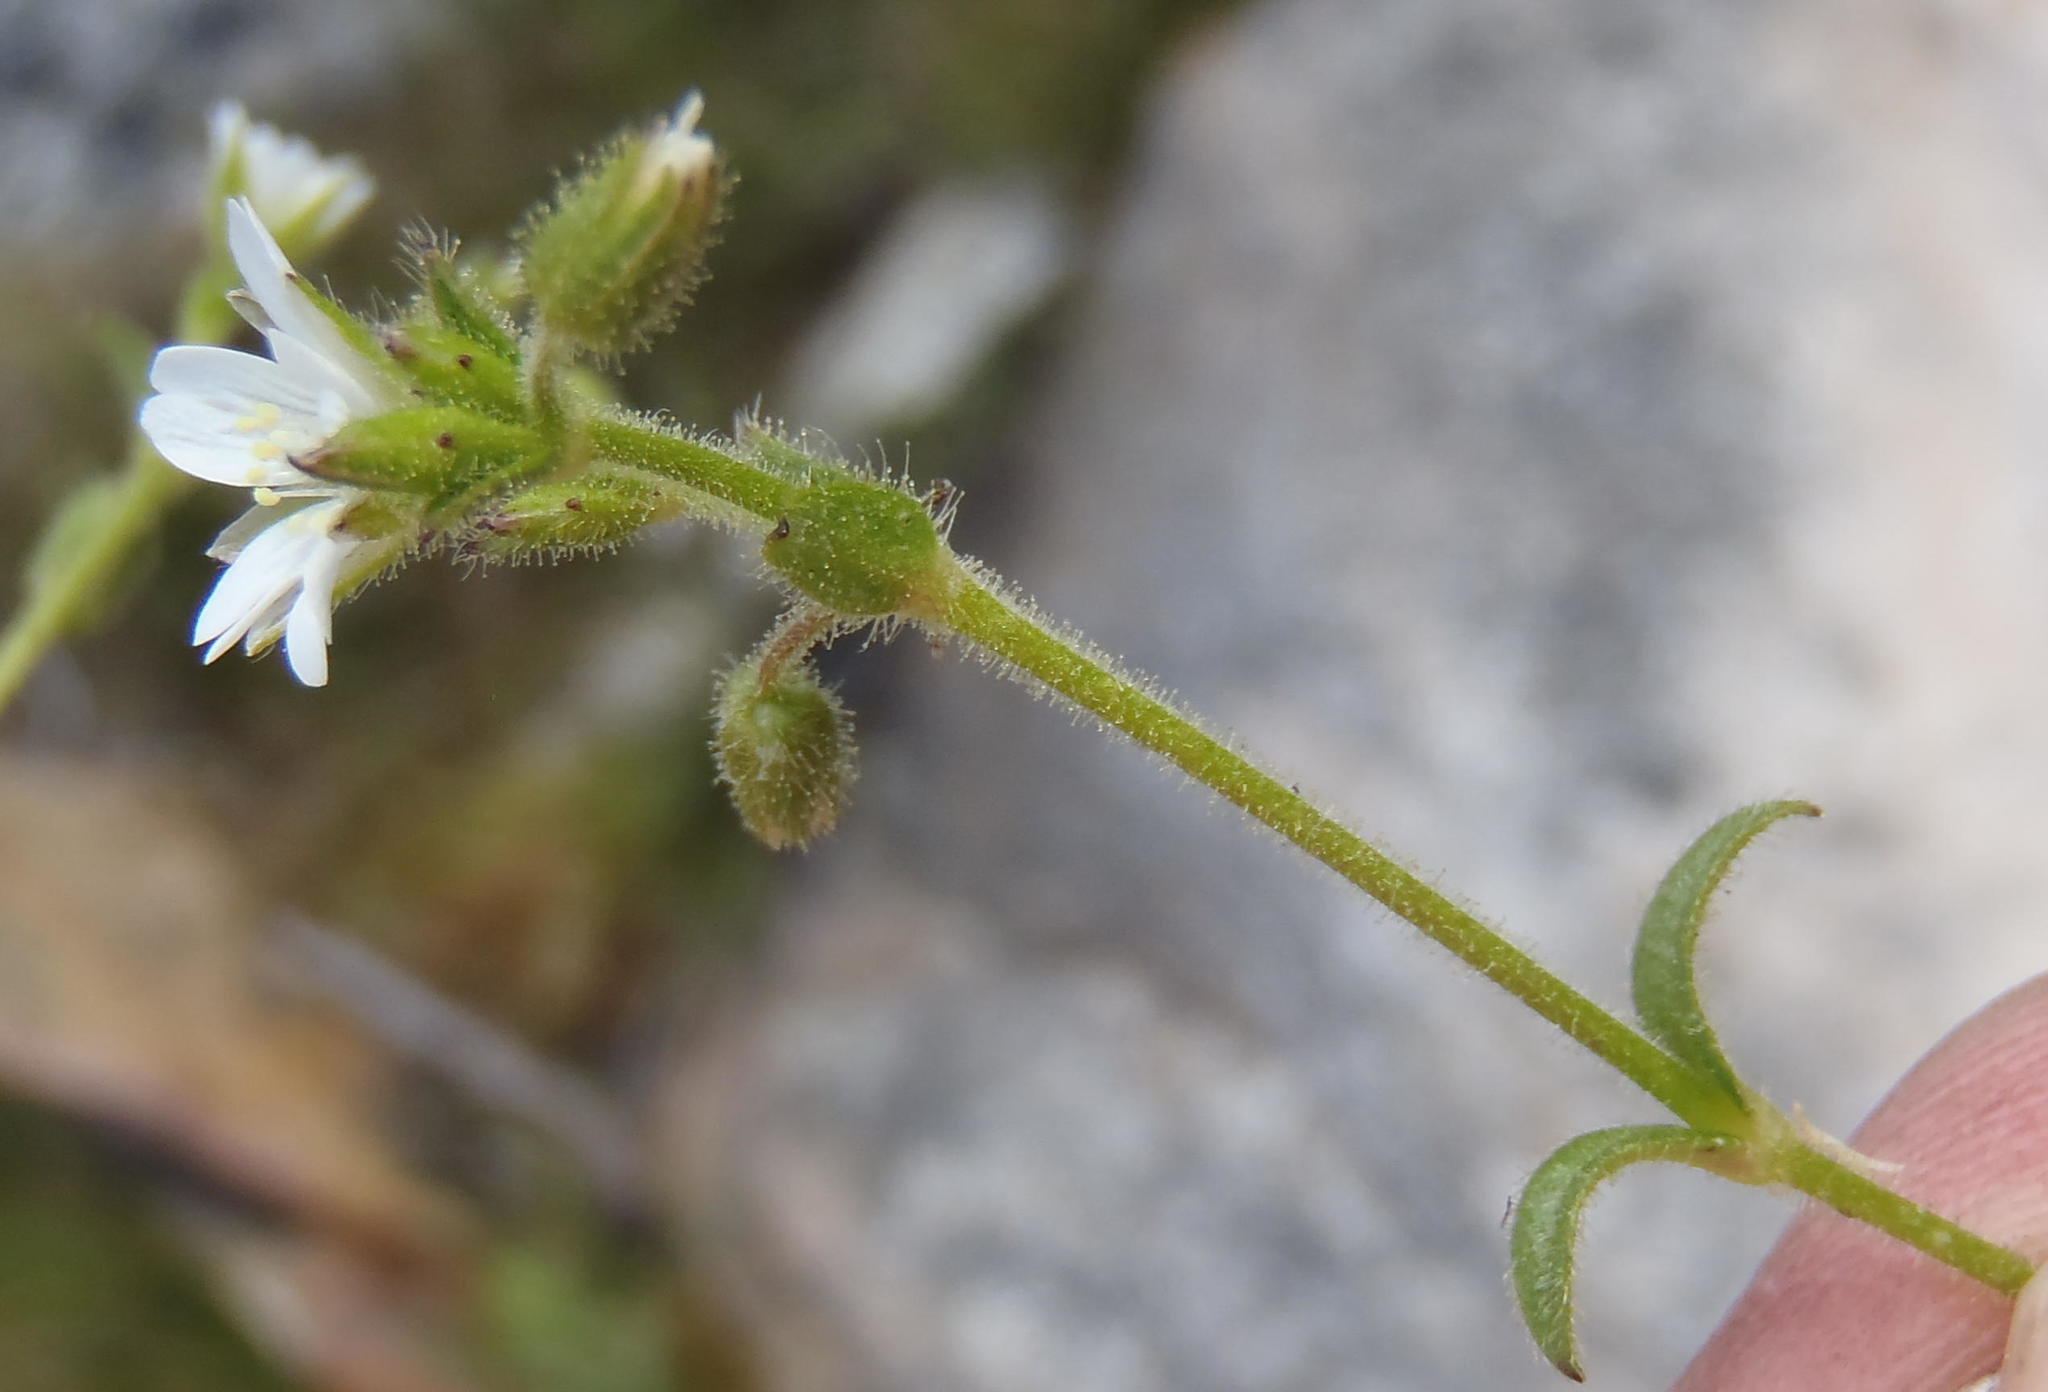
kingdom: Plantae
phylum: Tracheophyta
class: Magnoliopsida
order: Caryophyllales
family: Caryophyllaceae
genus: Cerastium
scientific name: Cerastium capense
